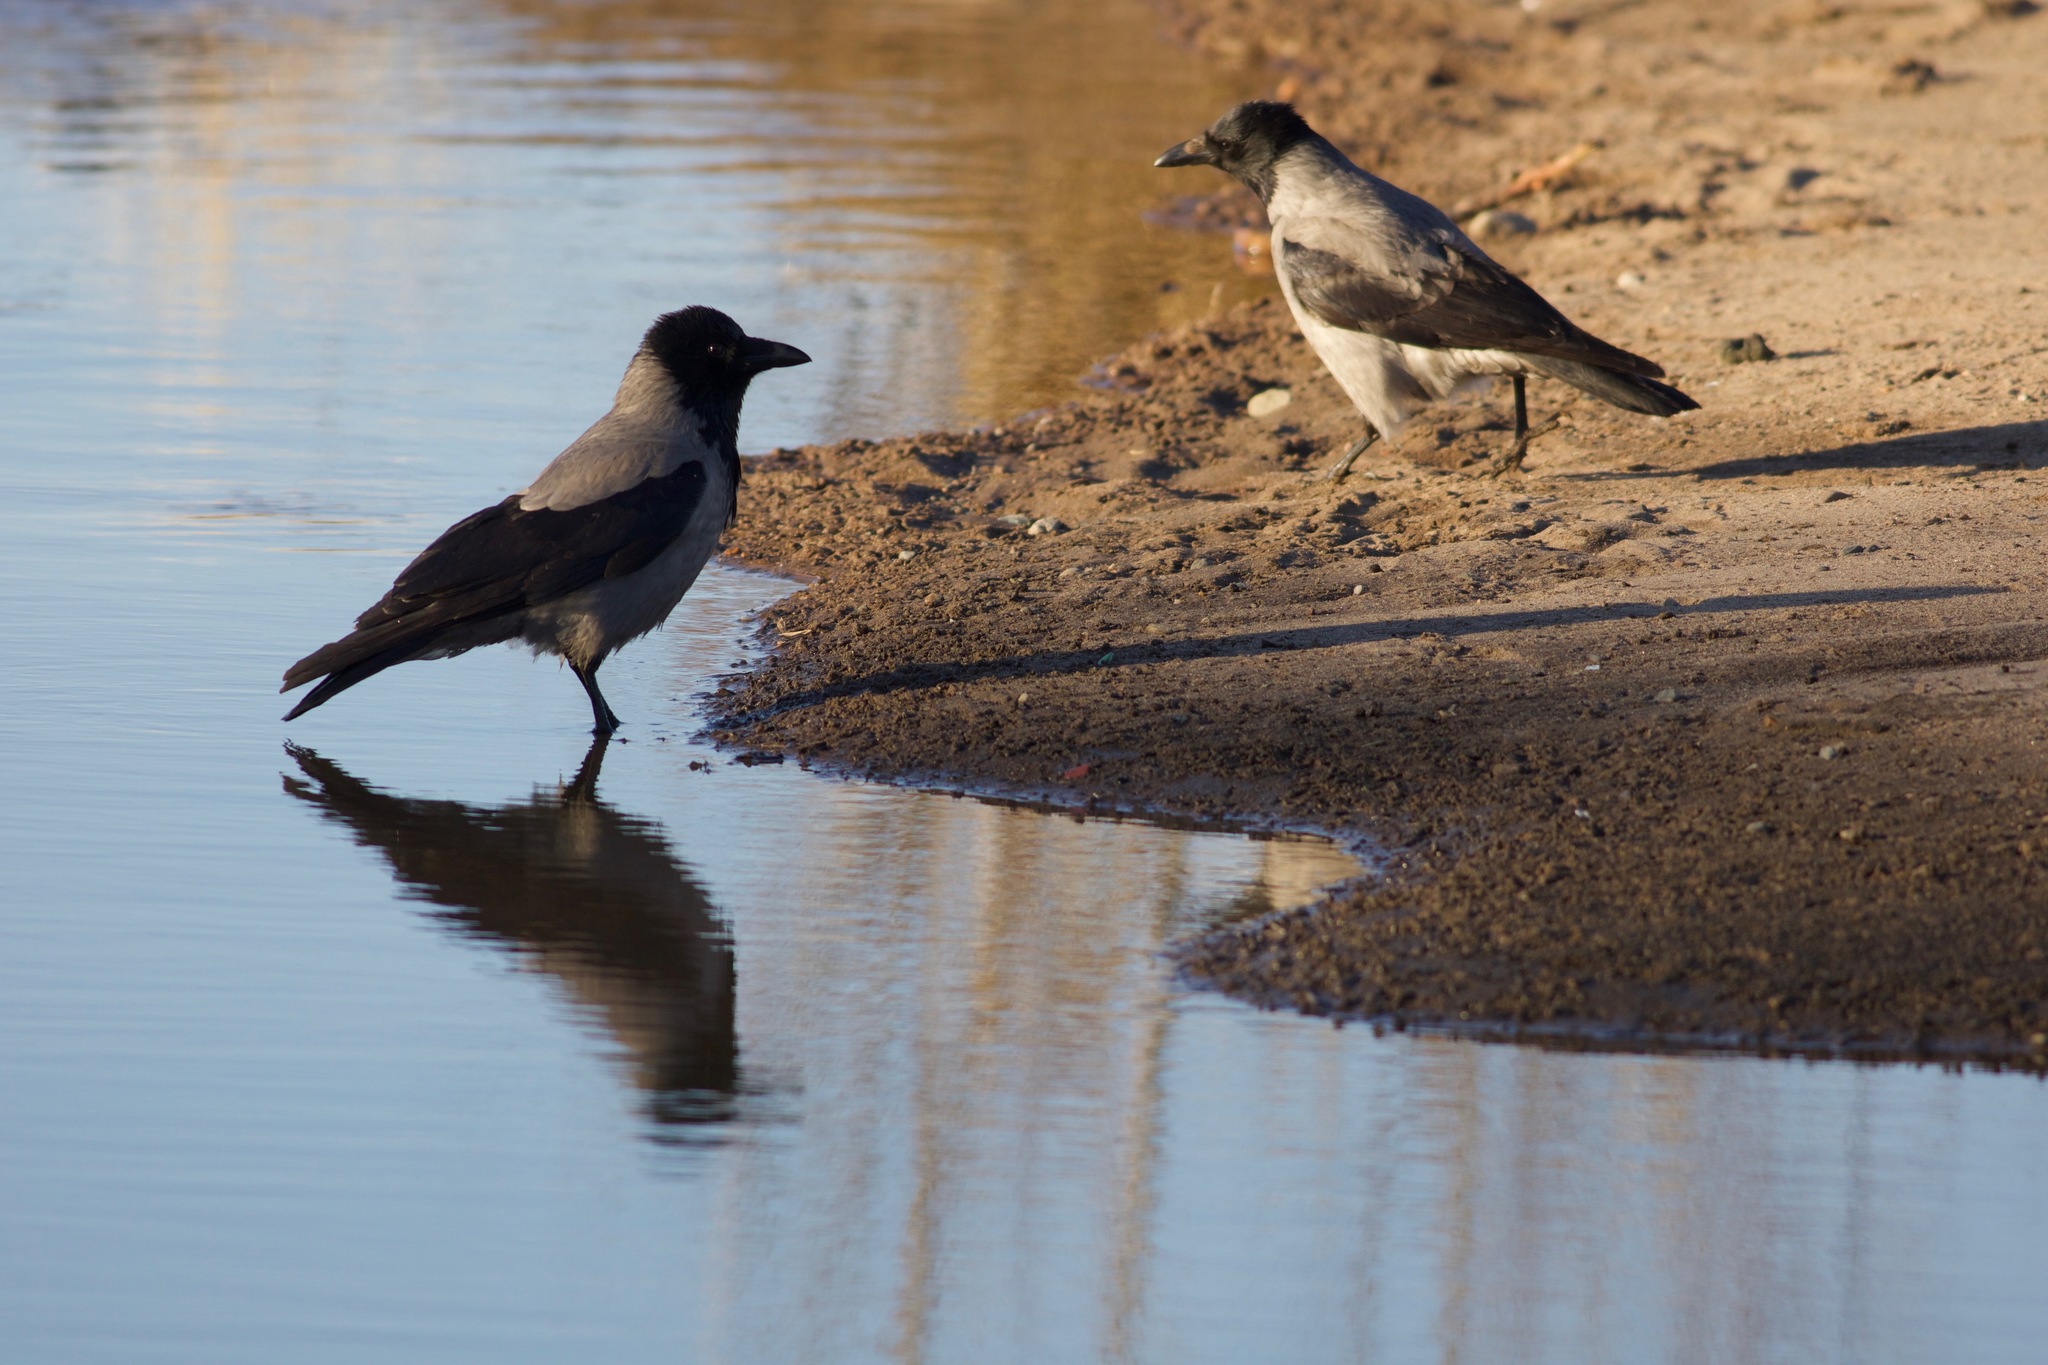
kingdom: Animalia
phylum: Chordata
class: Aves
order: Passeriformes
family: Corvidae
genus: Corvus
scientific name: Corvus cornix
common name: Hooded crow
